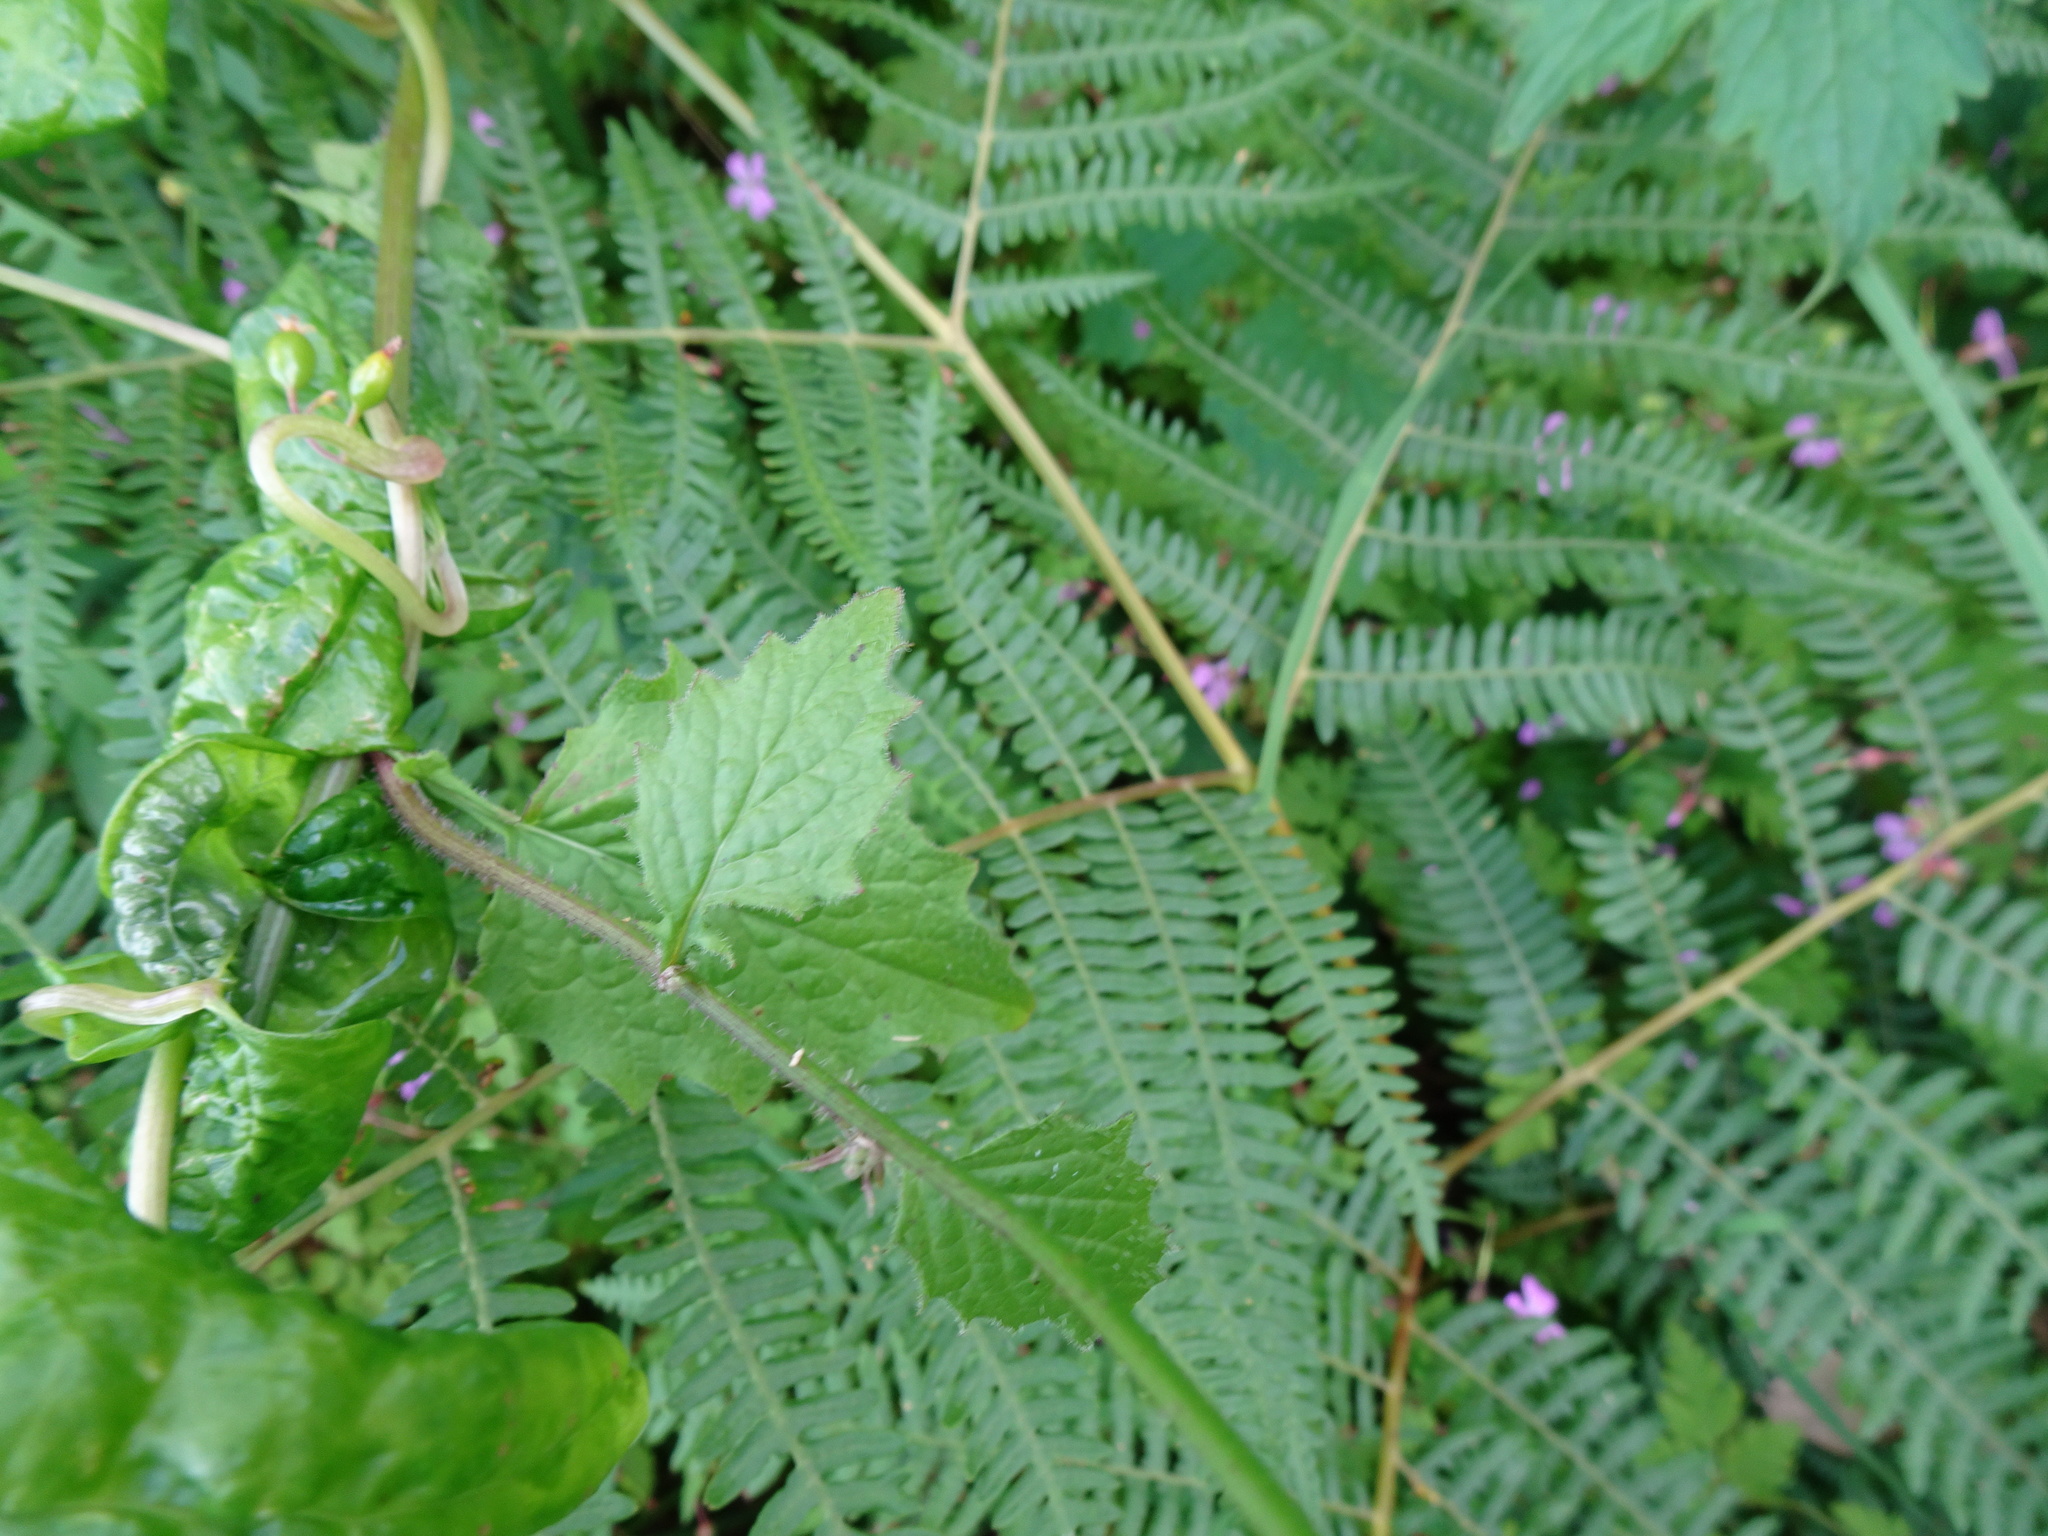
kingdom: Plantae
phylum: Tracheophyta
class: Polypodiopsida
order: Polypodiales
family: Dennstaedtiaceae
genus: Pteridium
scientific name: Pteridium aquilinum
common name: Bracken
